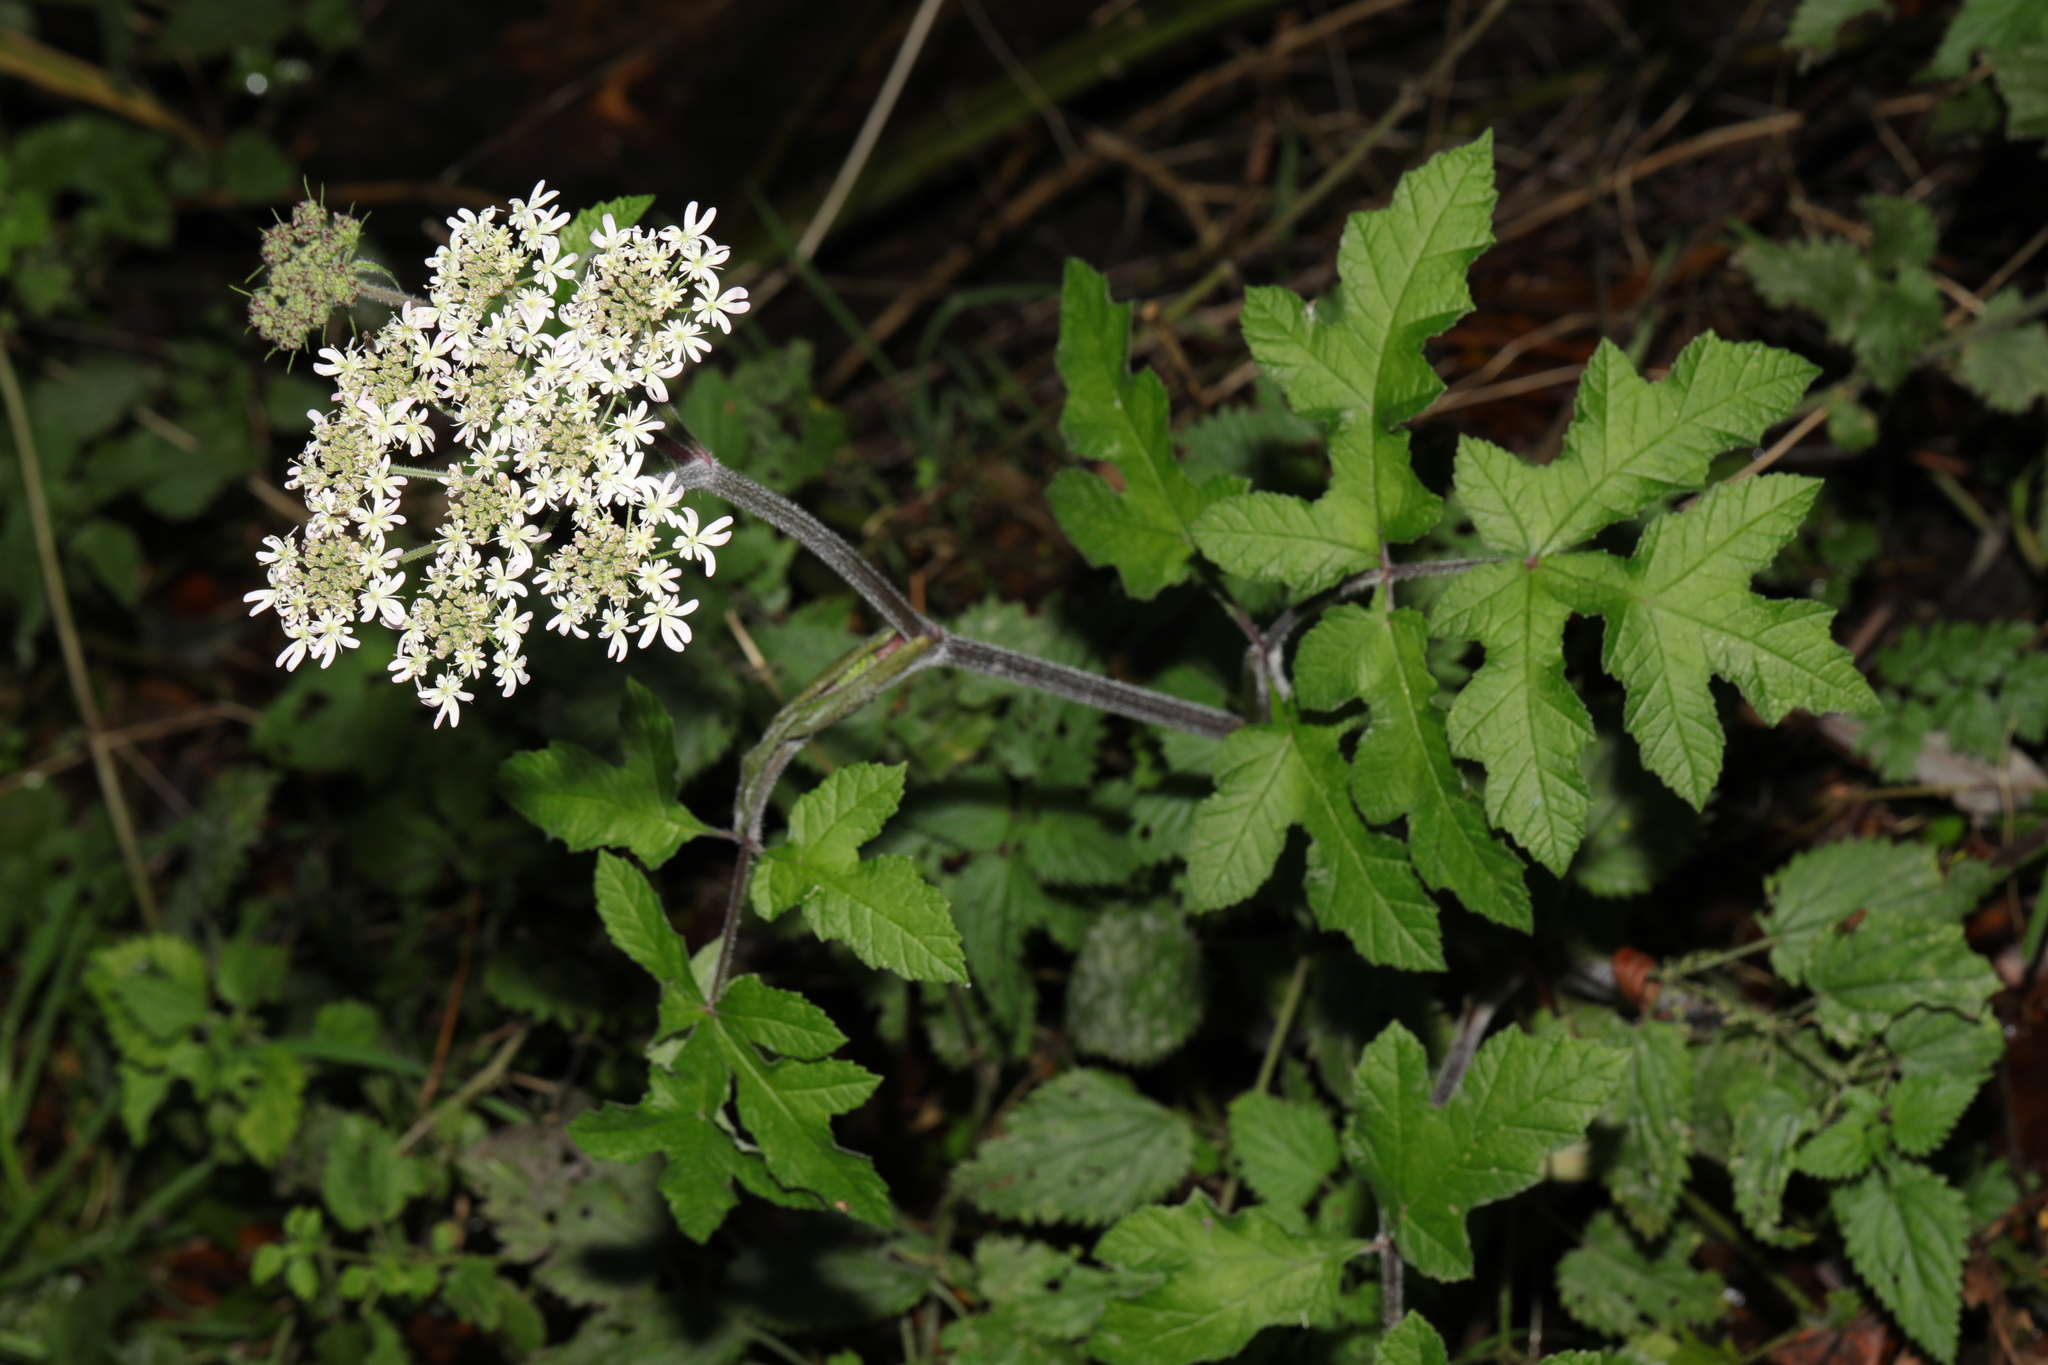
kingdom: Plantae
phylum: Tracheophyta
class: Magnoliopsida
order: Apiales
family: Apiaceae
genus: Heracleum
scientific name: Heracleum sphondylium
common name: Hogweed
